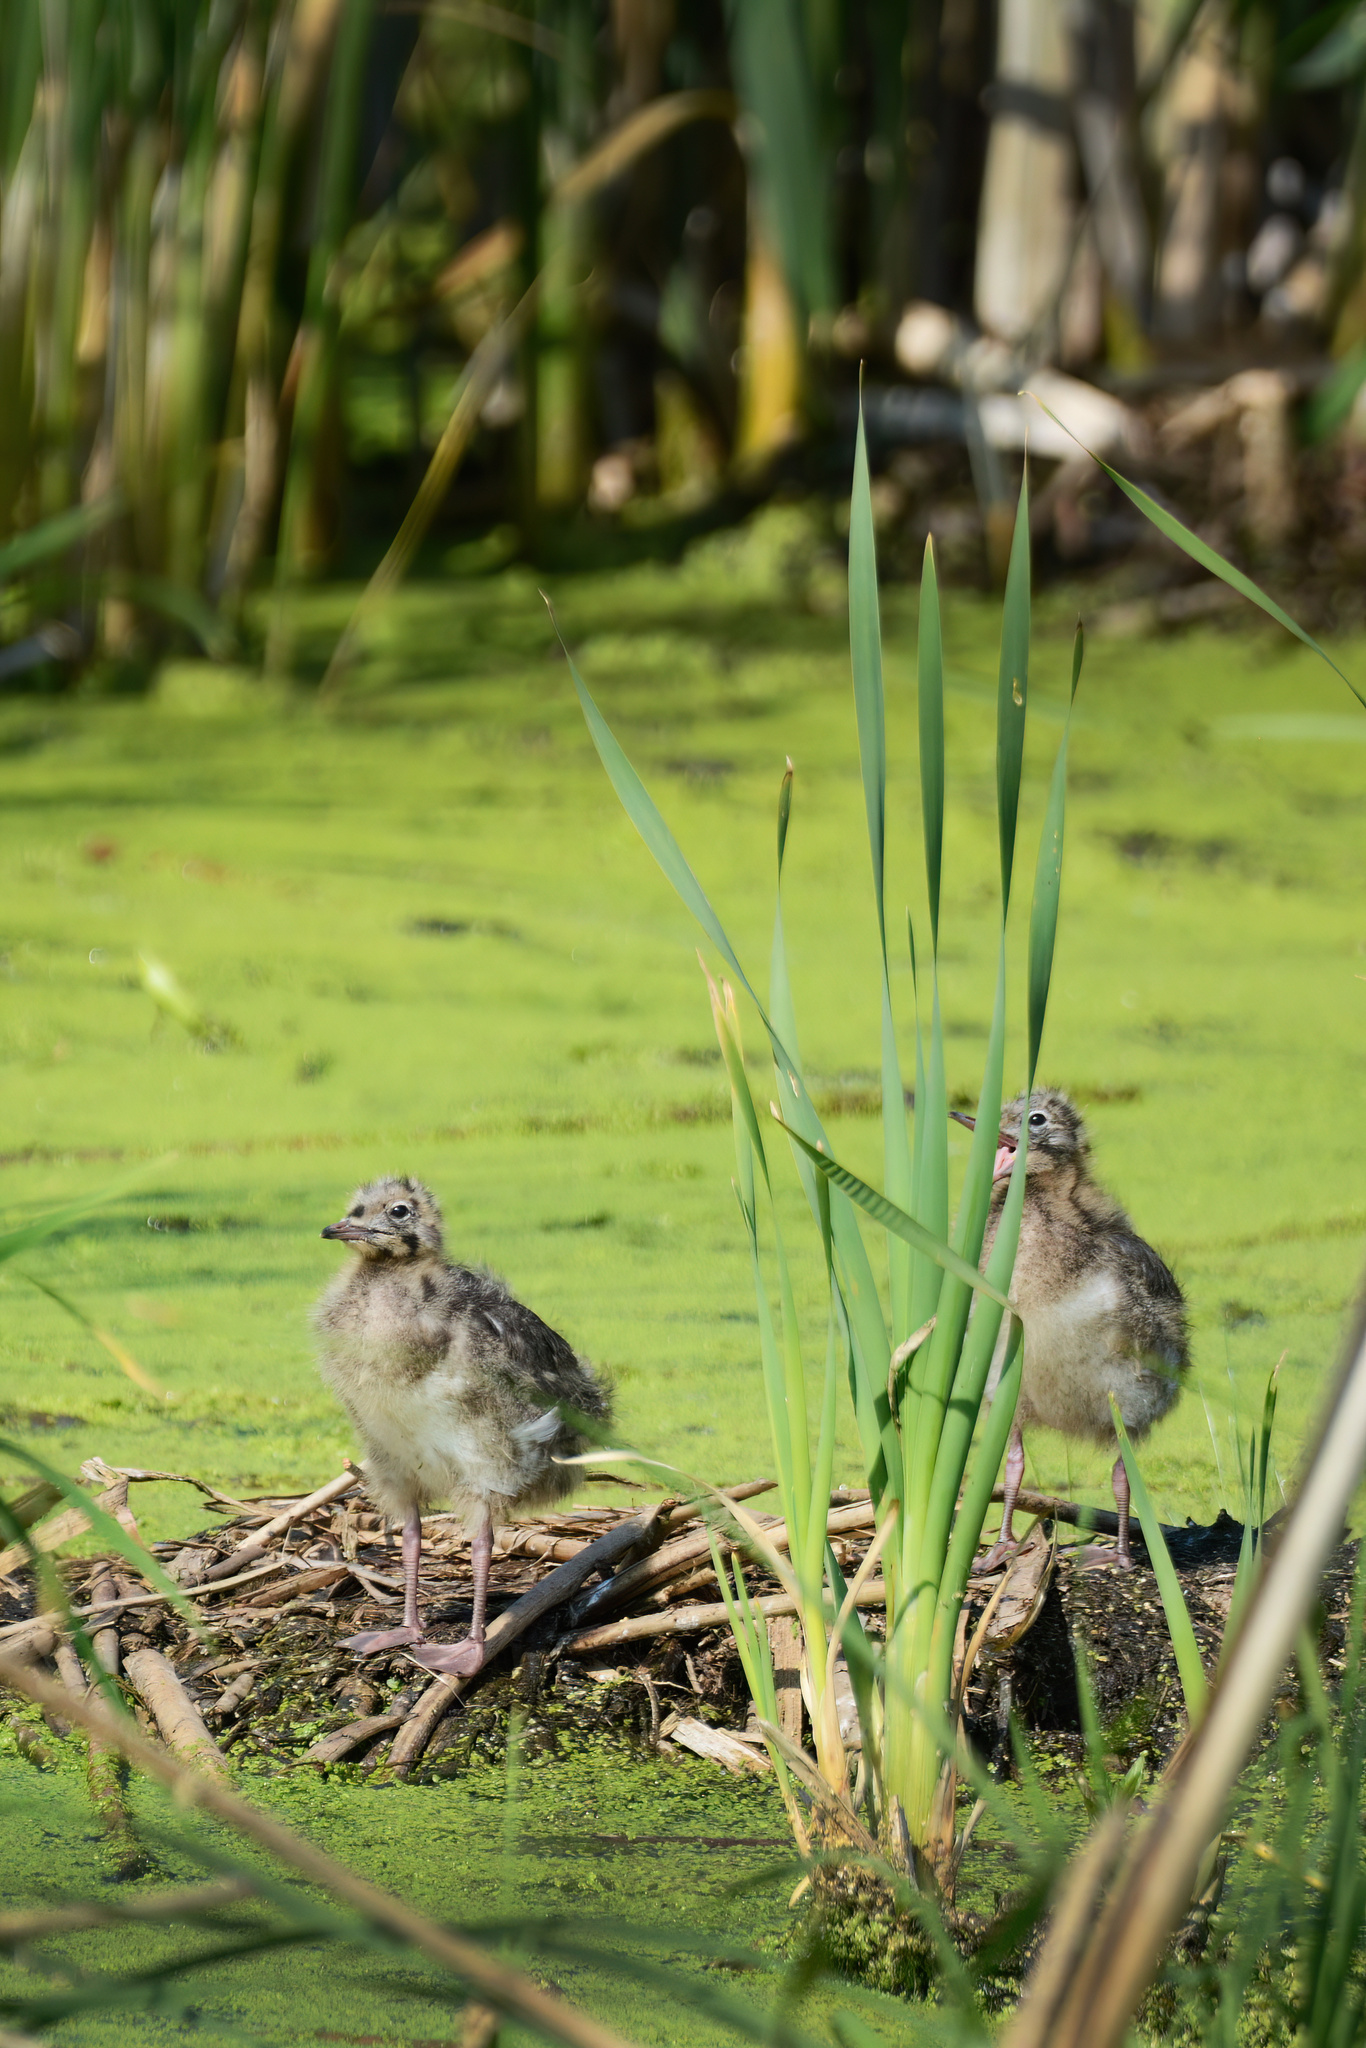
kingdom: Animalia
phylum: Chordata
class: Aves
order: Charadriiformes
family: Laridae
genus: Chroicocephalus
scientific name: Chroicocephalus ridibundus
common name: Black-headed gull
